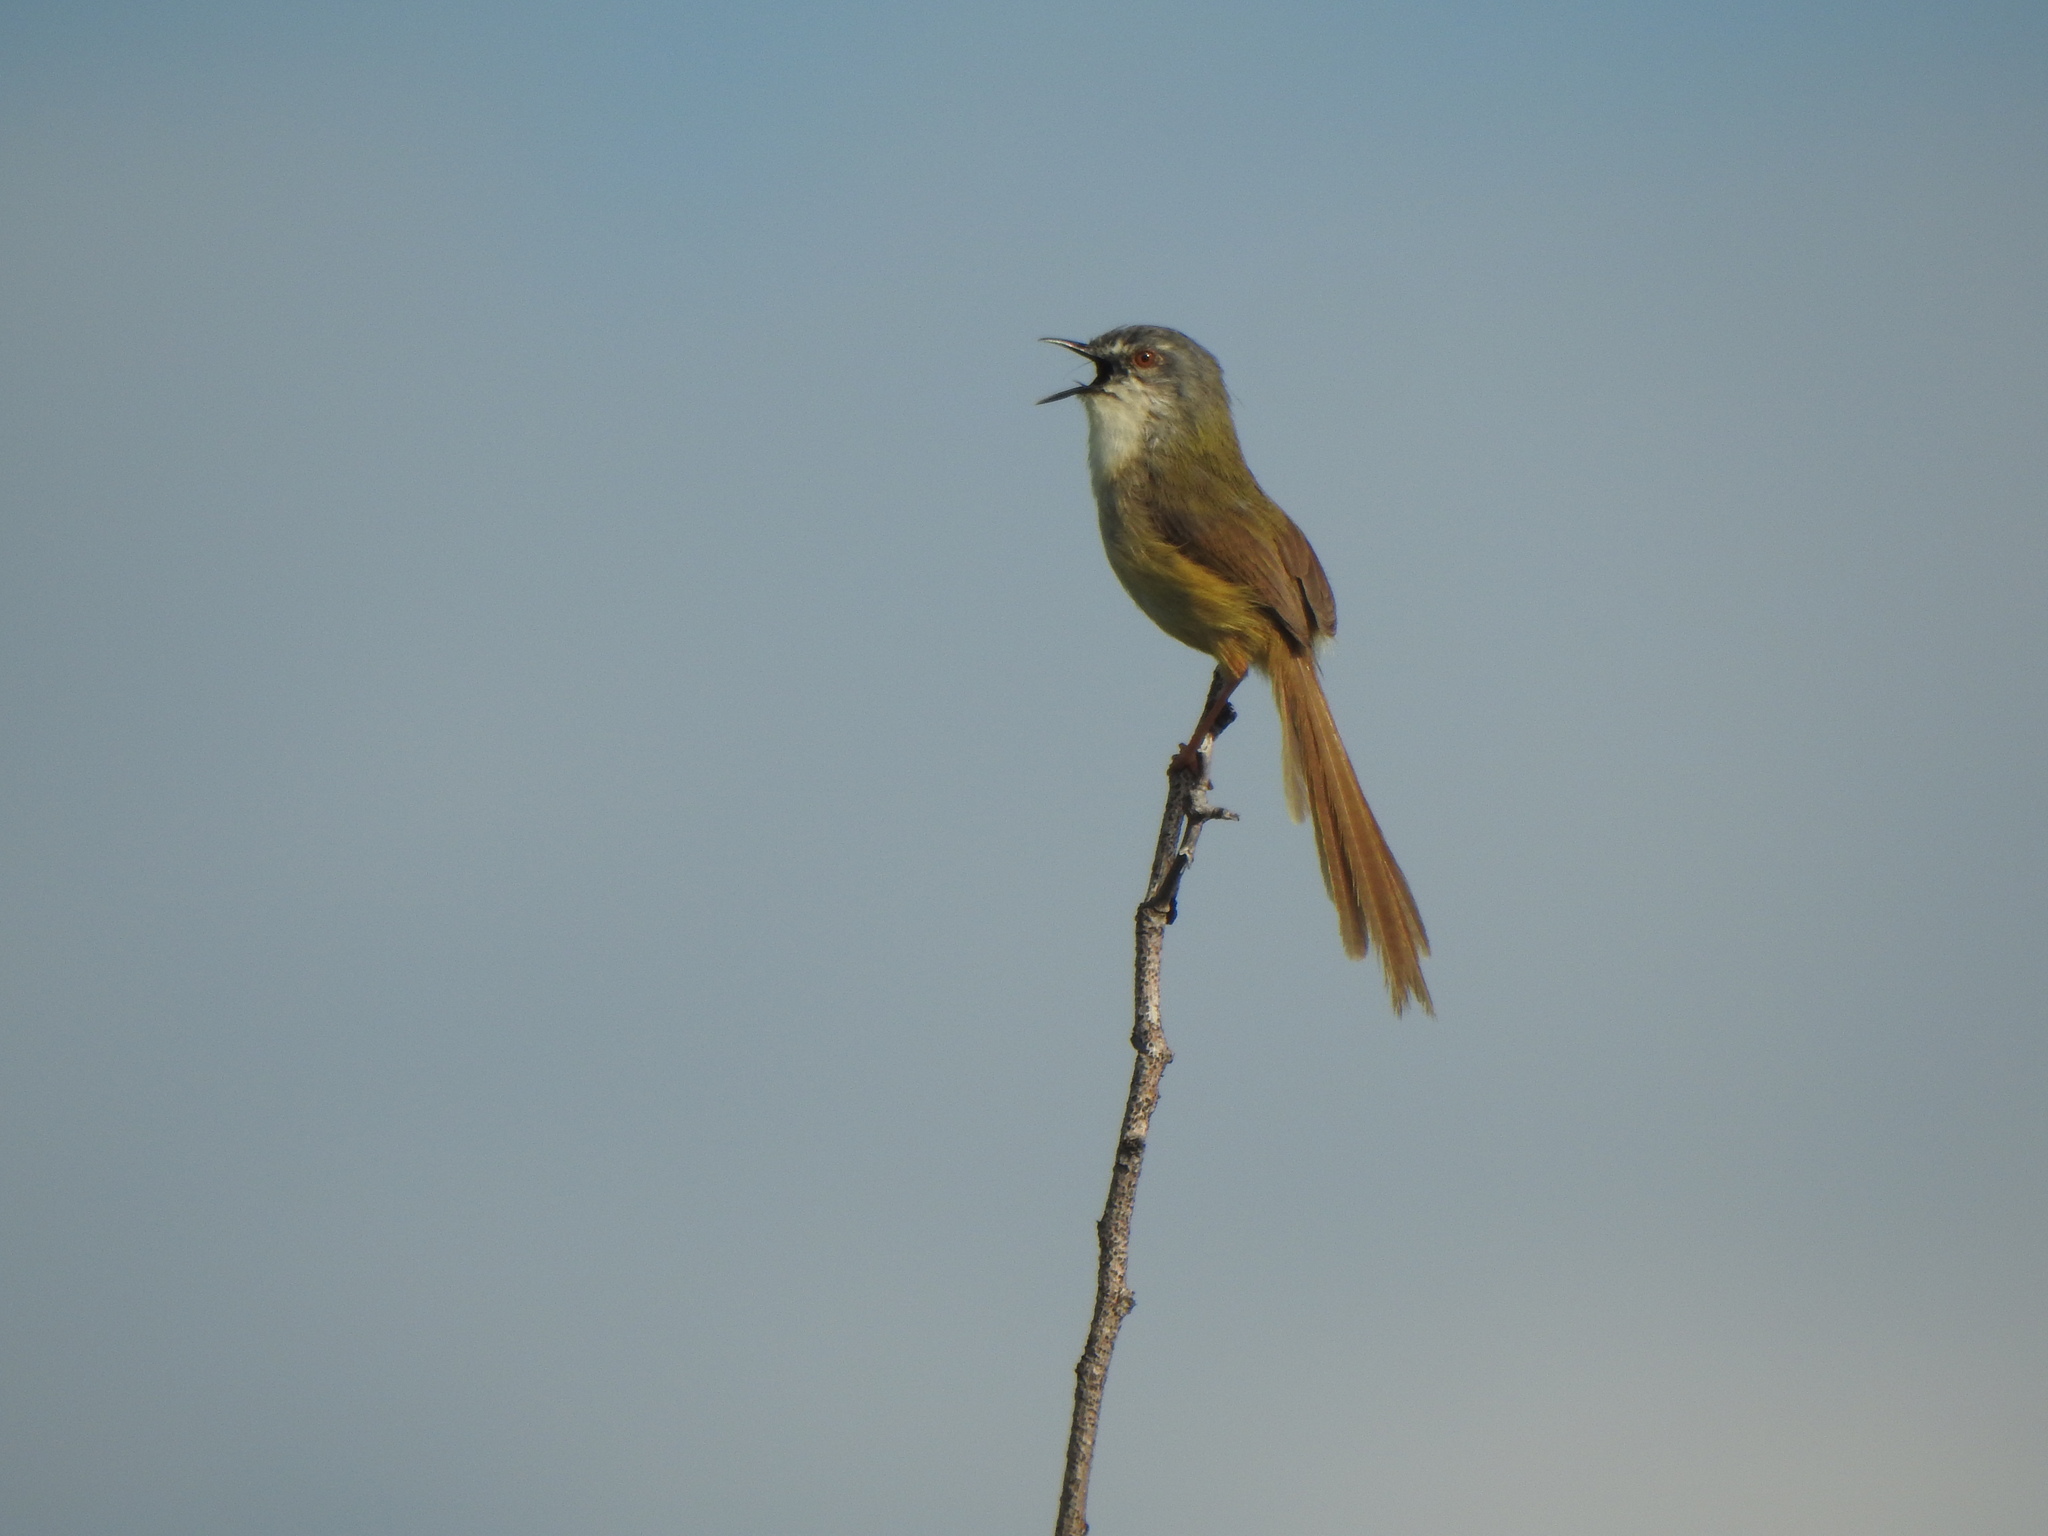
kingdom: Animalia
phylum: Chordata
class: Aves
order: Passeriformes
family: Cisticolidae
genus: Prinia
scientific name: Prinia flaviventris
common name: Yellow-bellied prinia
